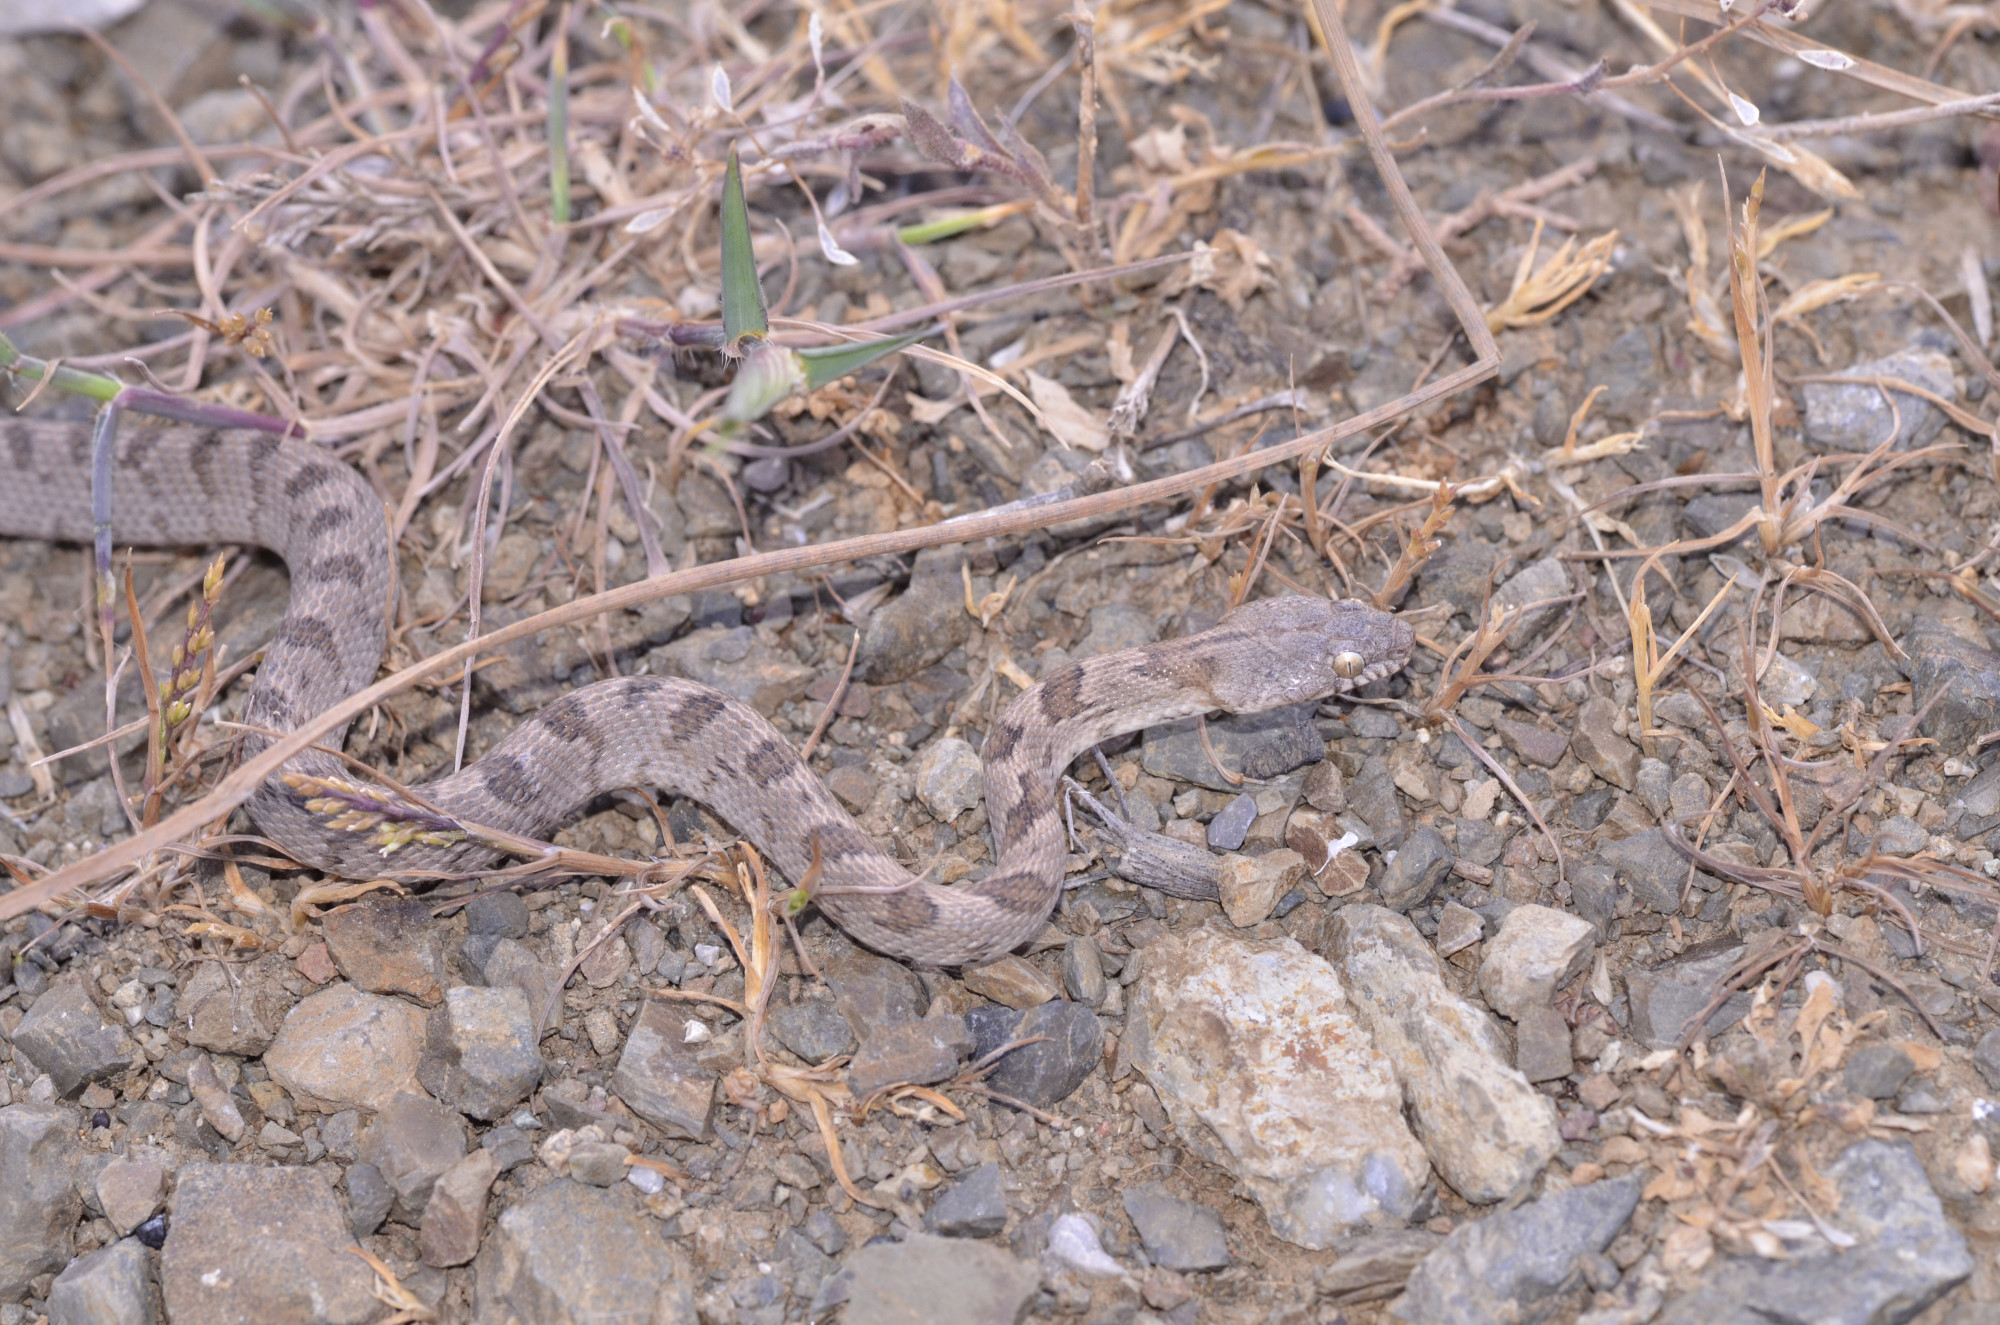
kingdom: Animalia
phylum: Chordata
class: Squamata
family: Colubridae
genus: Telescopus
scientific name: Telescopus fallax
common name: Cat snake
